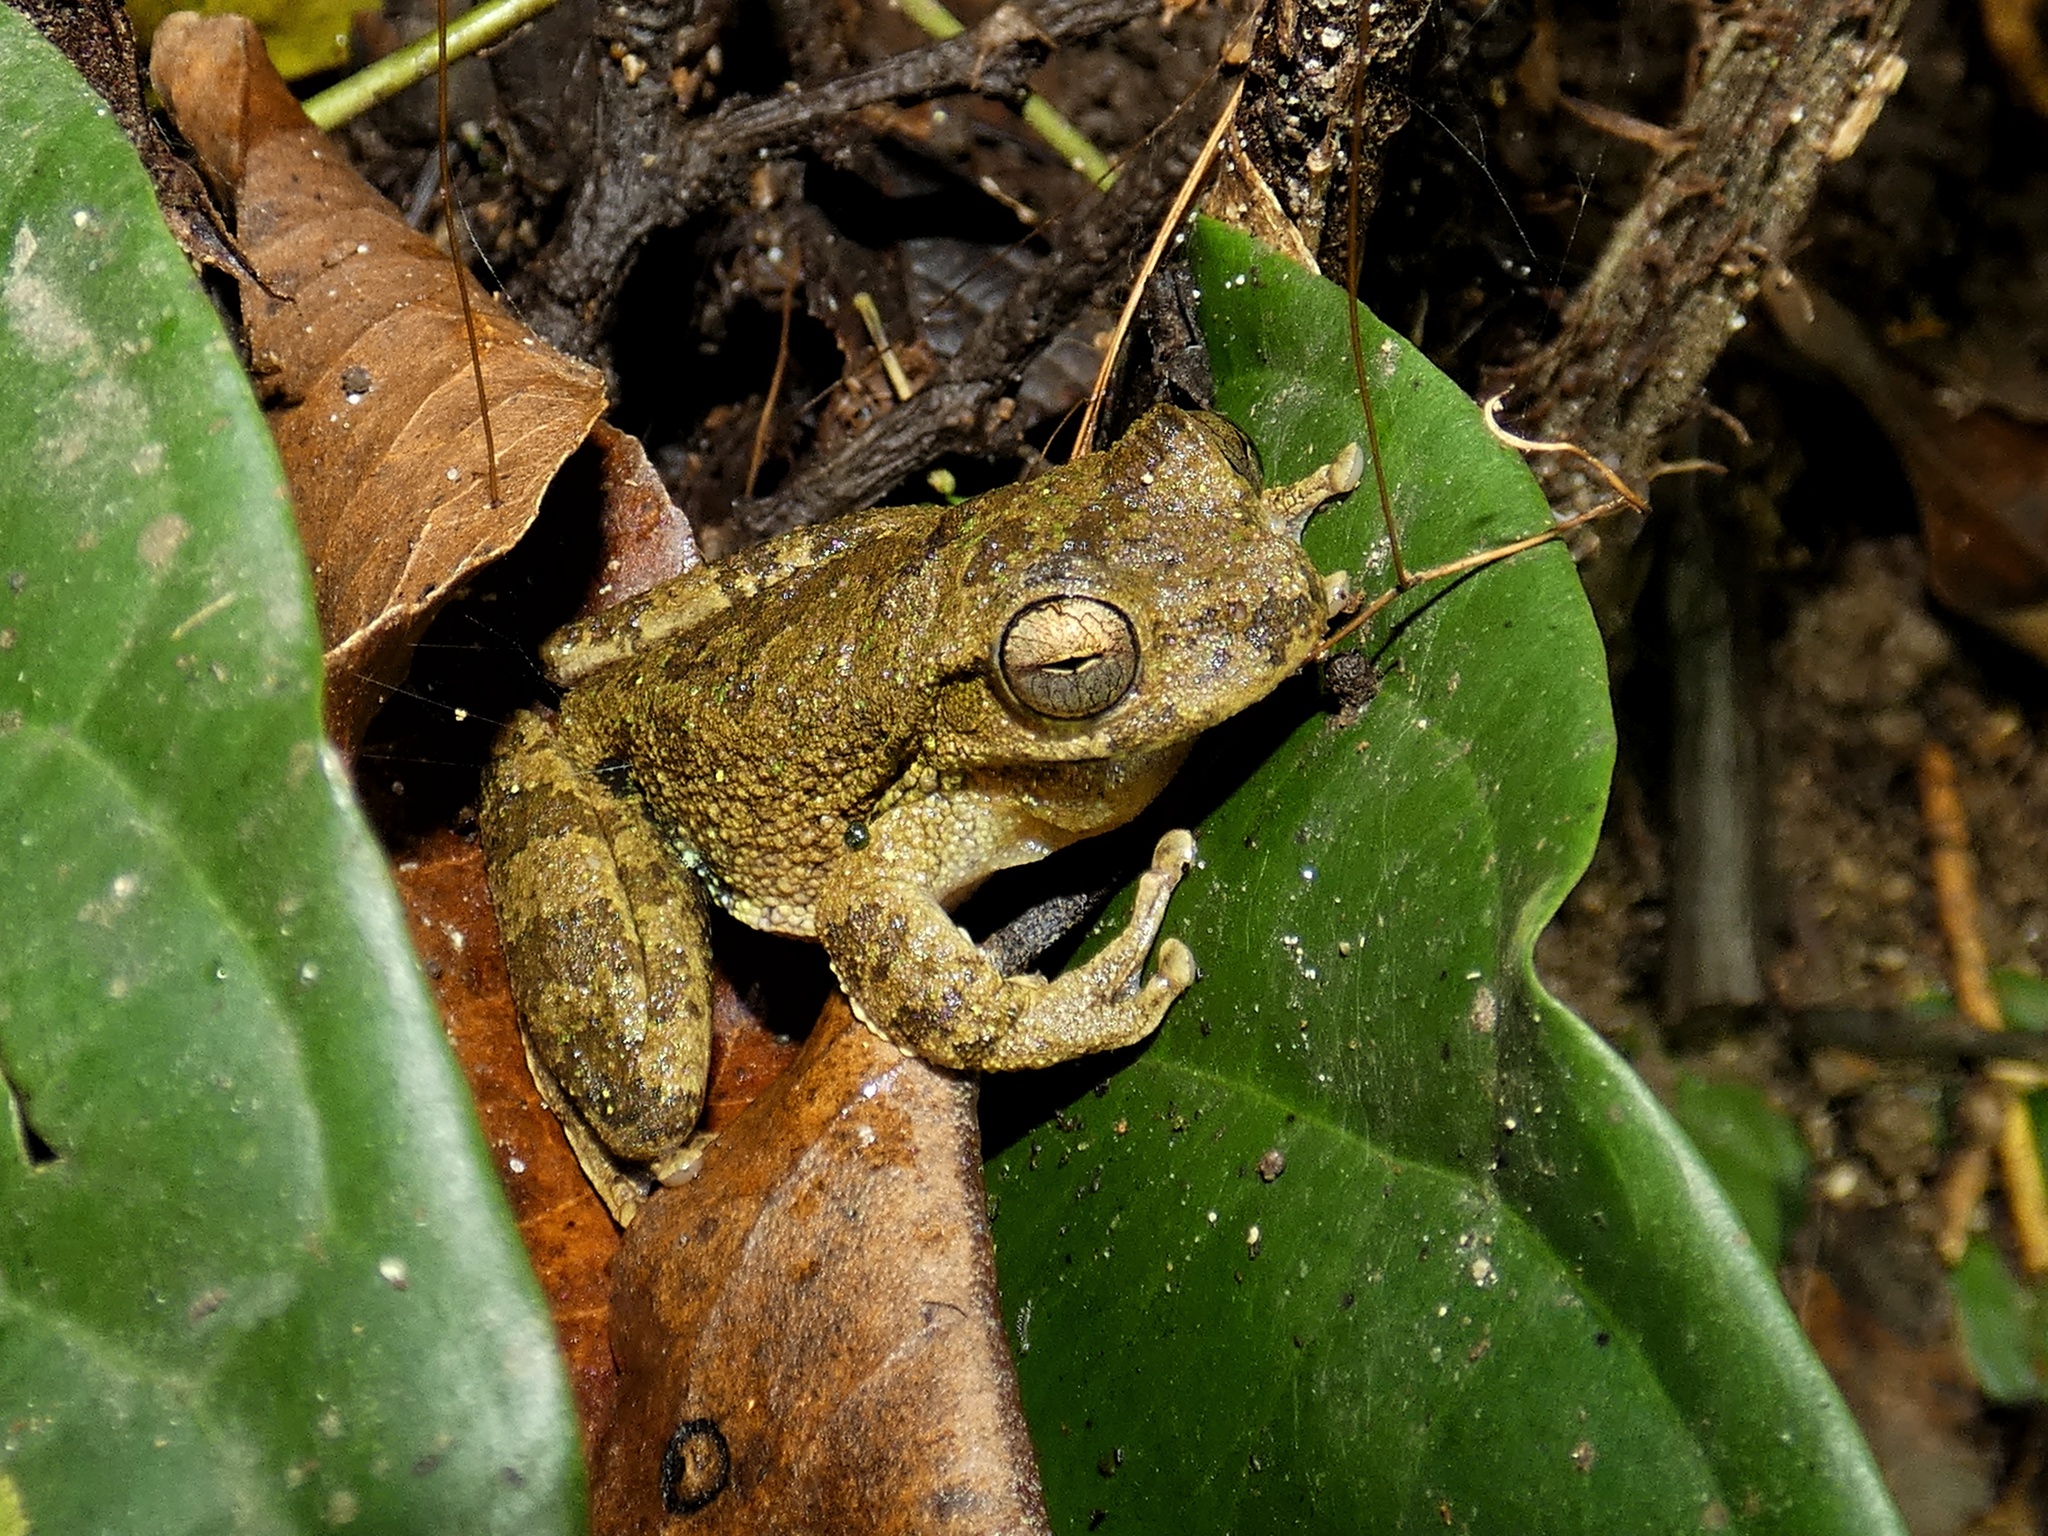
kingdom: Animalia
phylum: Chordata
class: Amphibia
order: Anura
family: Hylidae
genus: Smilisca
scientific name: Smilisca sordida
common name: Veragua cross-banded treefrog
